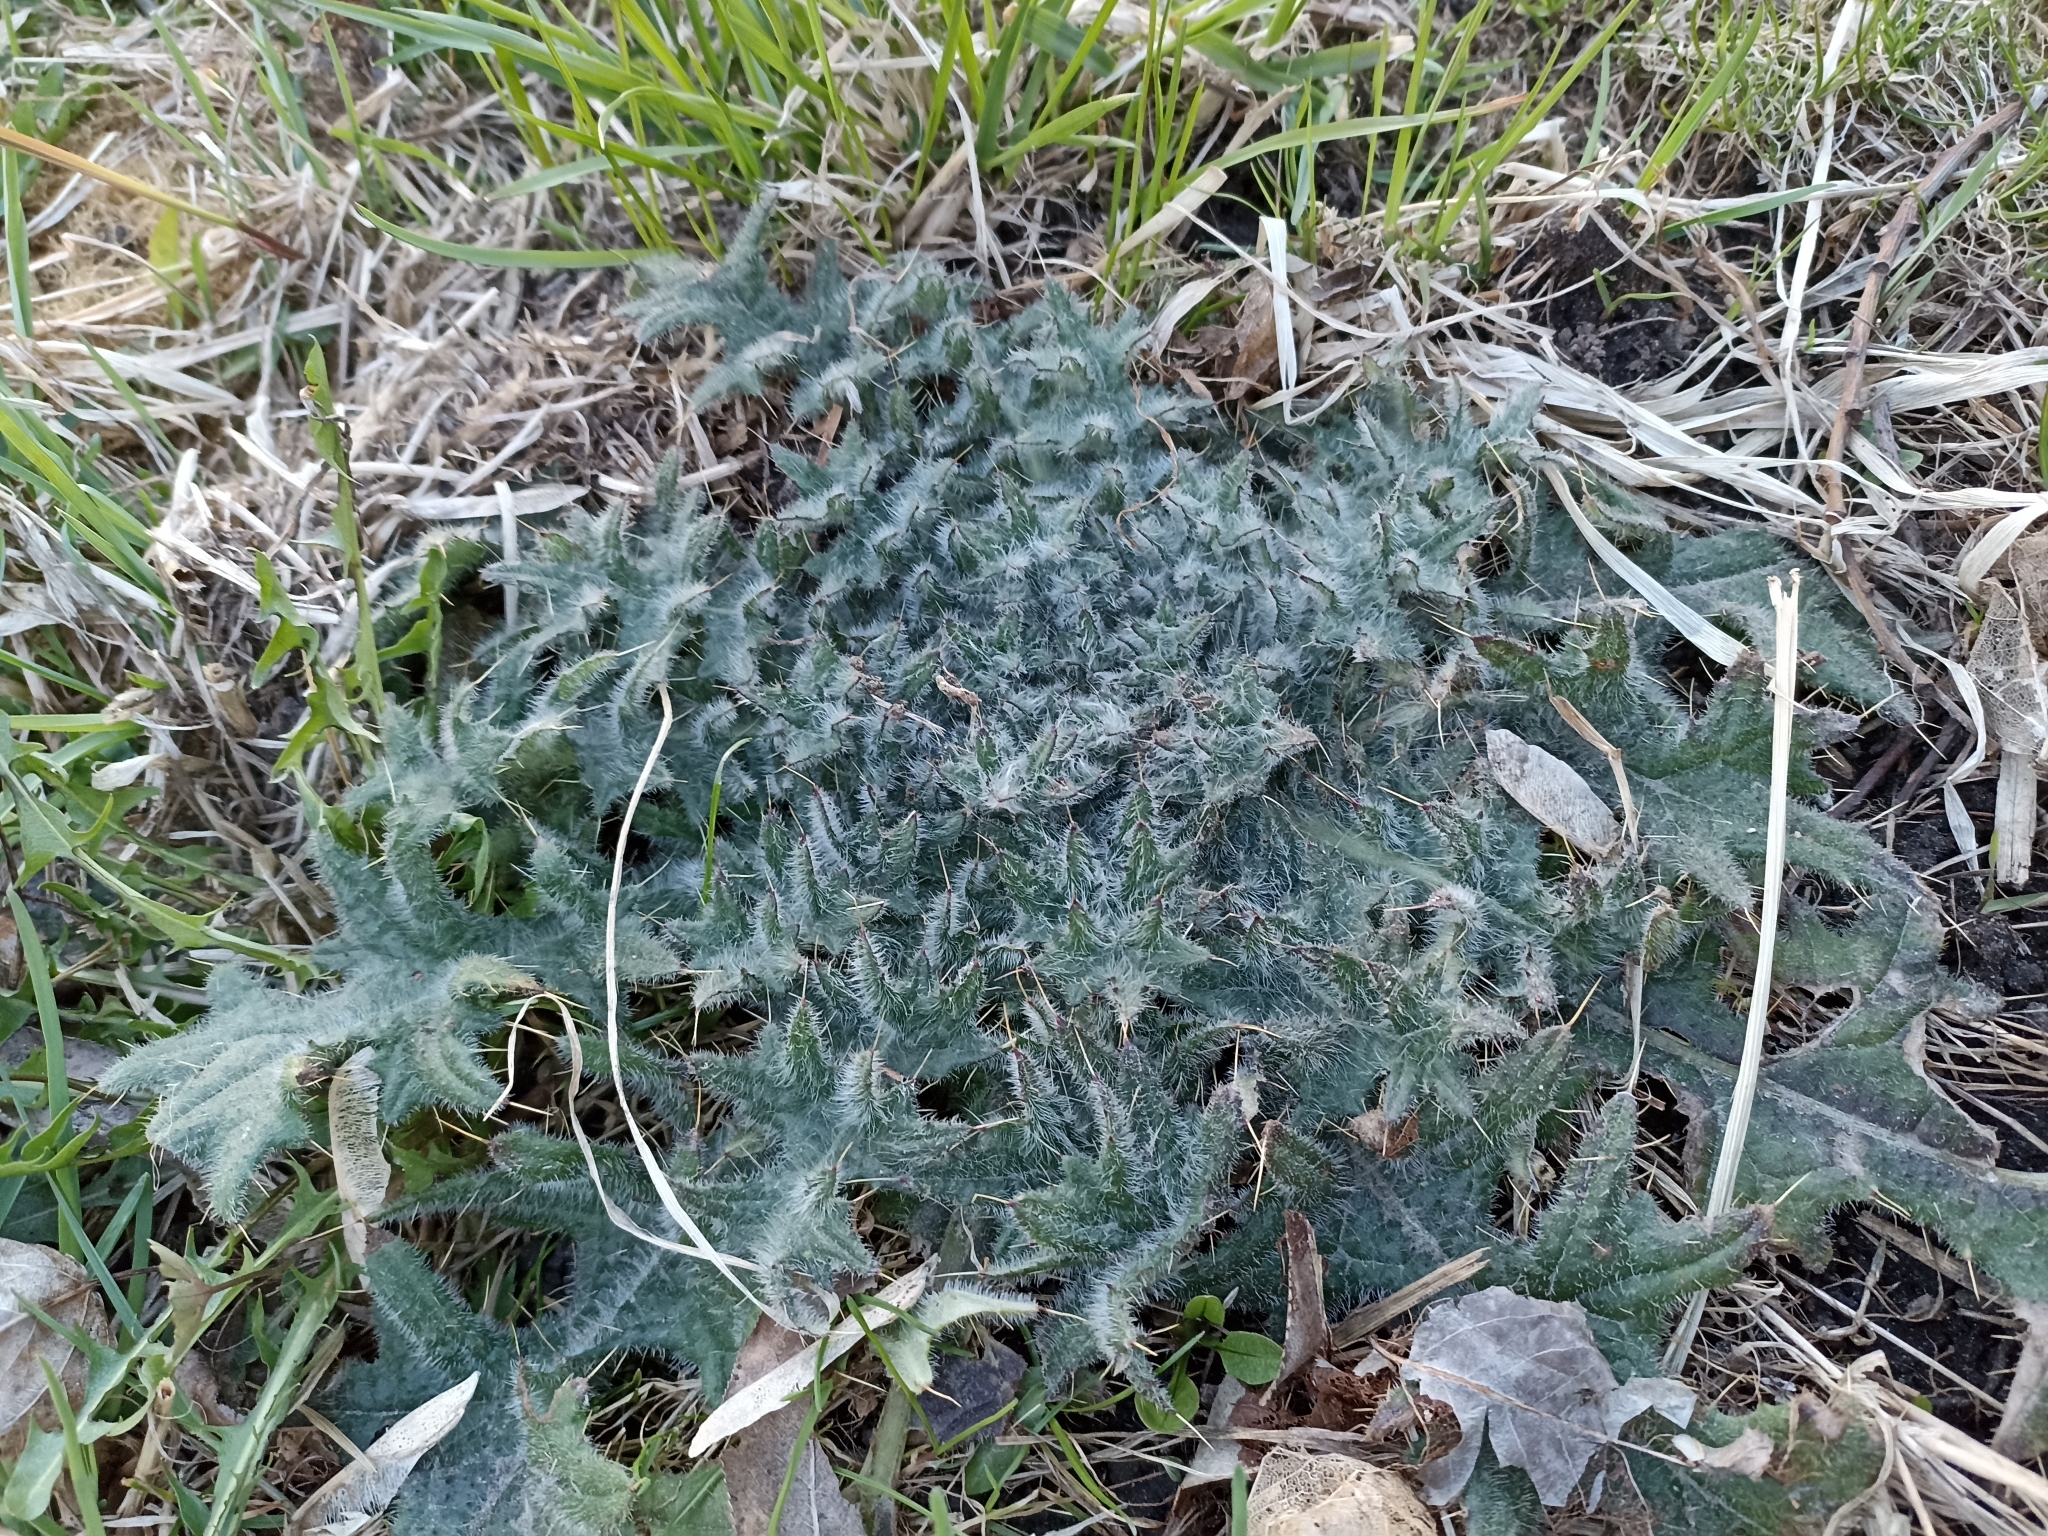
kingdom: Plantae
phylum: Tracheophyta
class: Magnoliopsida
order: Asterales
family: Asteraceae
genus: Cirsium
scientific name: Cirsium vulgare
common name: Bull thistle
